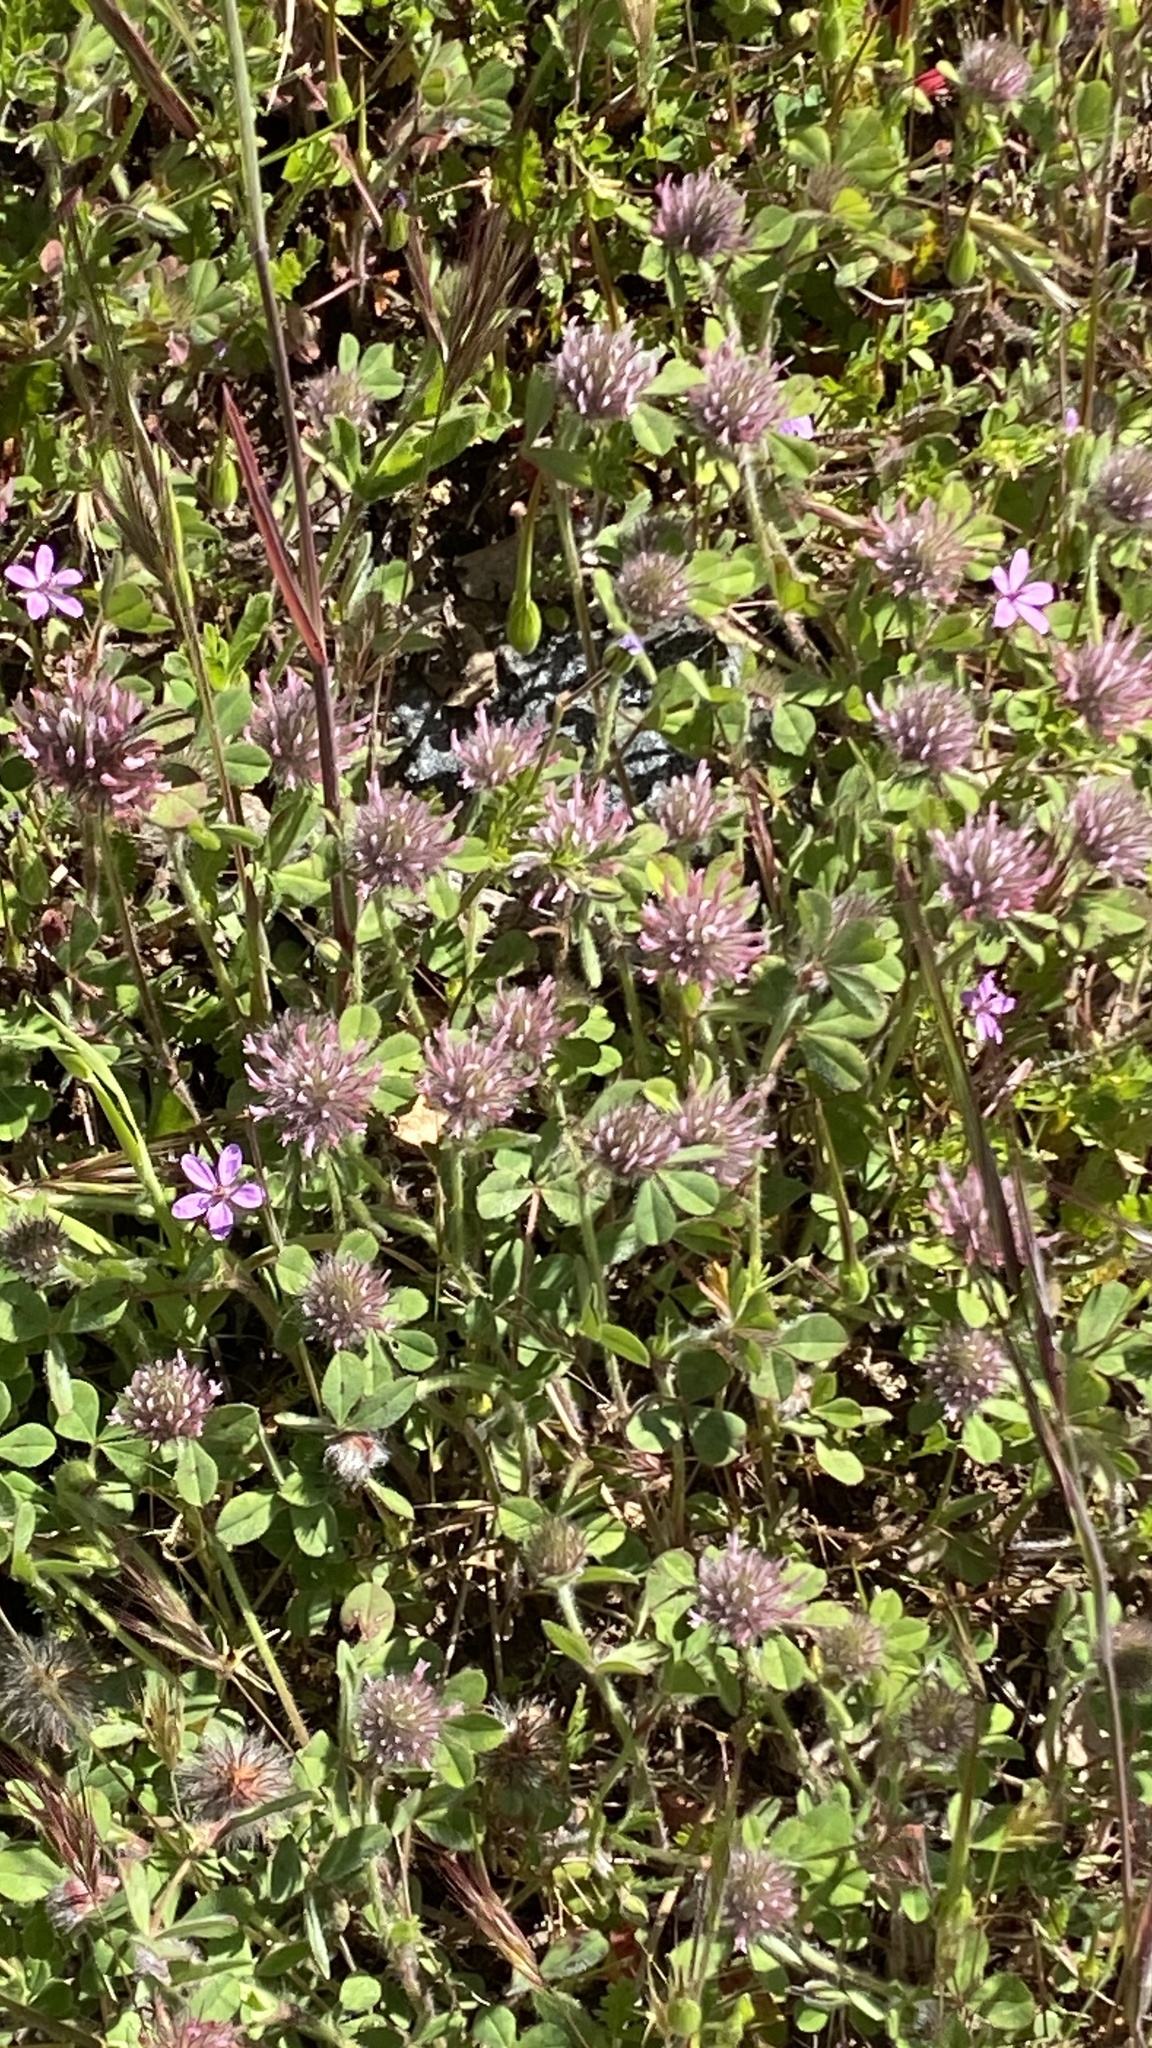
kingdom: Plantae
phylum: Tracheophyta
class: Magnoliopsida
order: Fabales
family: Fabaceae
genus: Trifolium
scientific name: Trifolium hirtum
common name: Rose clover
